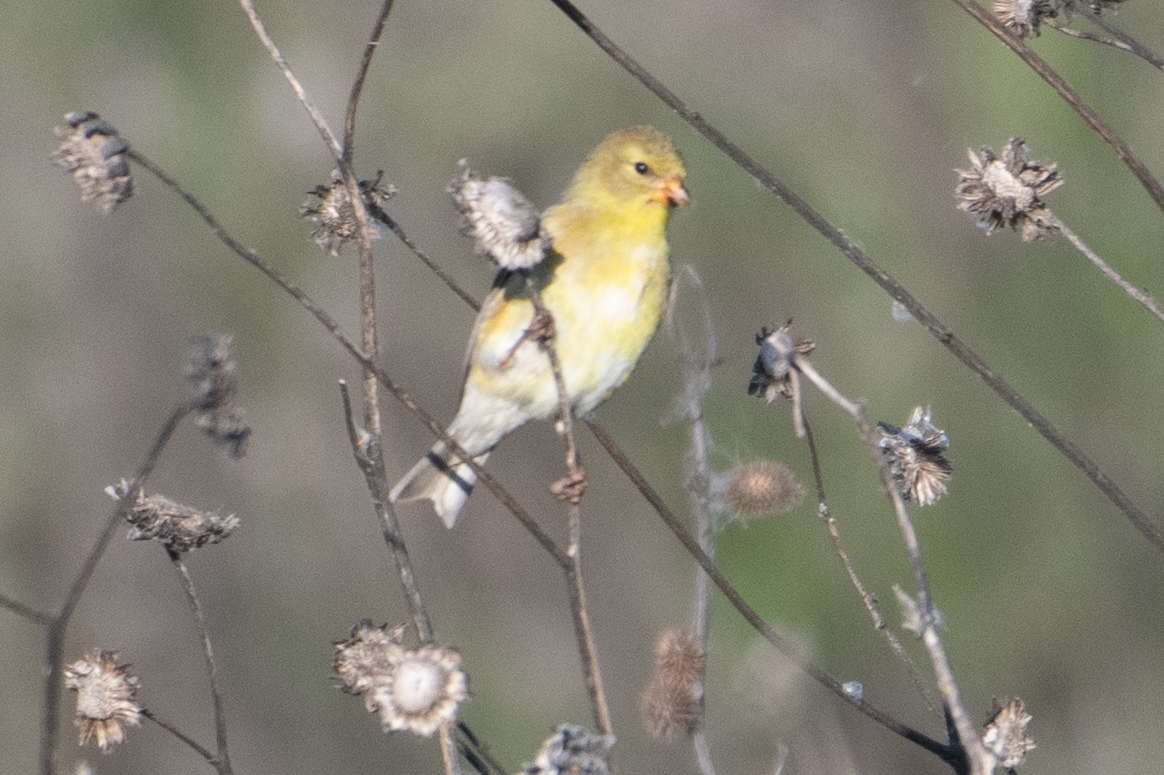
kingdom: Animalia
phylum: Chordata
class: Aves
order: Passeriformes
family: Fringillidae
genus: Spinus
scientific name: Spinus tristis
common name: American goldfinch
